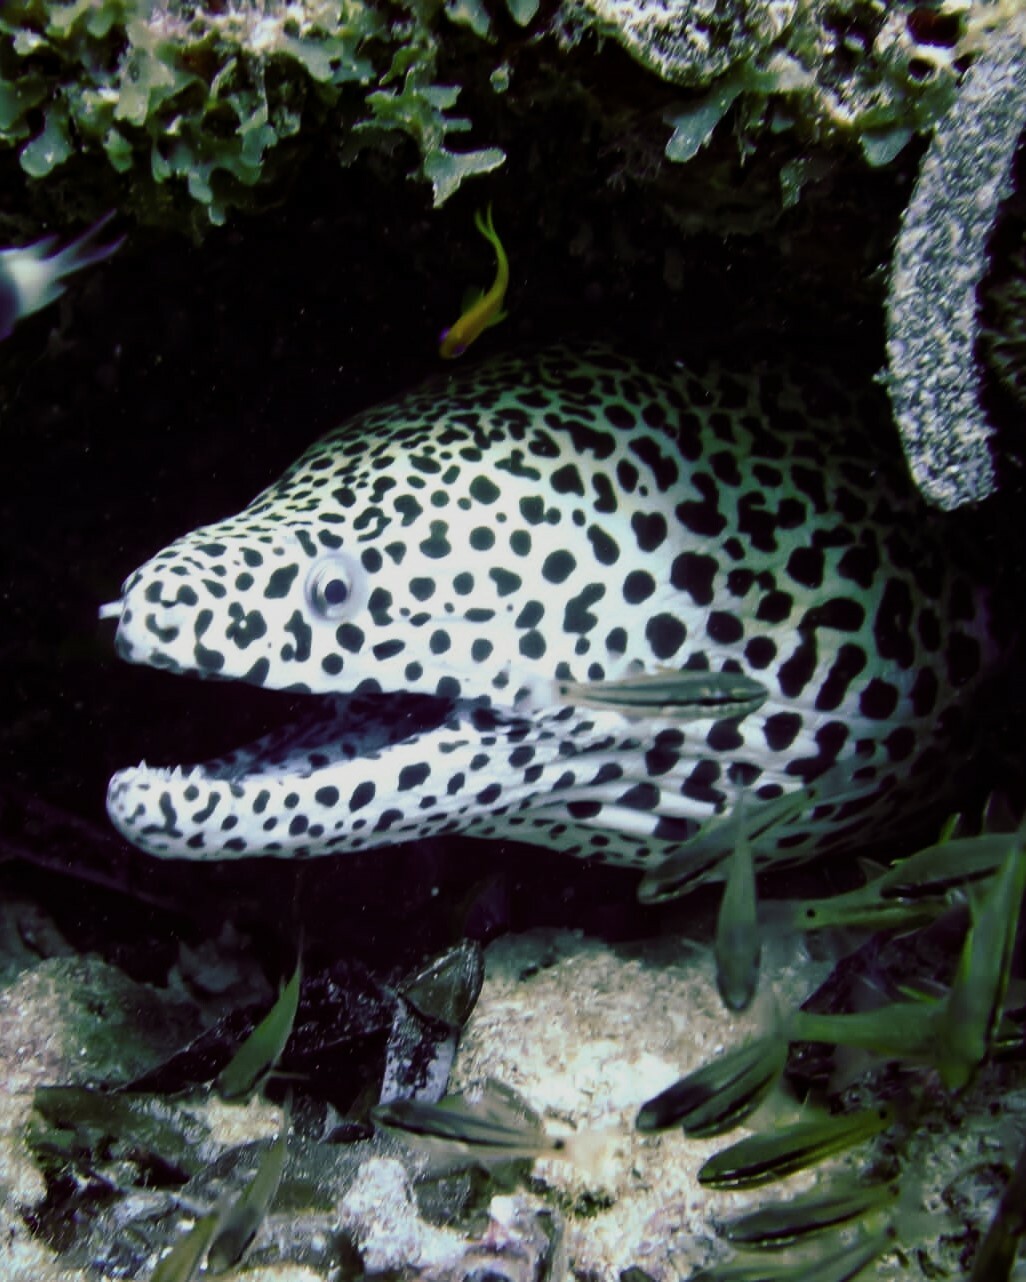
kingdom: Animalia
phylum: Chordata
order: Anguilliformes
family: Muraenidae
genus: Gymnothorax
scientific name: Gymnothorax favagineus
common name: Honeycomb moray
